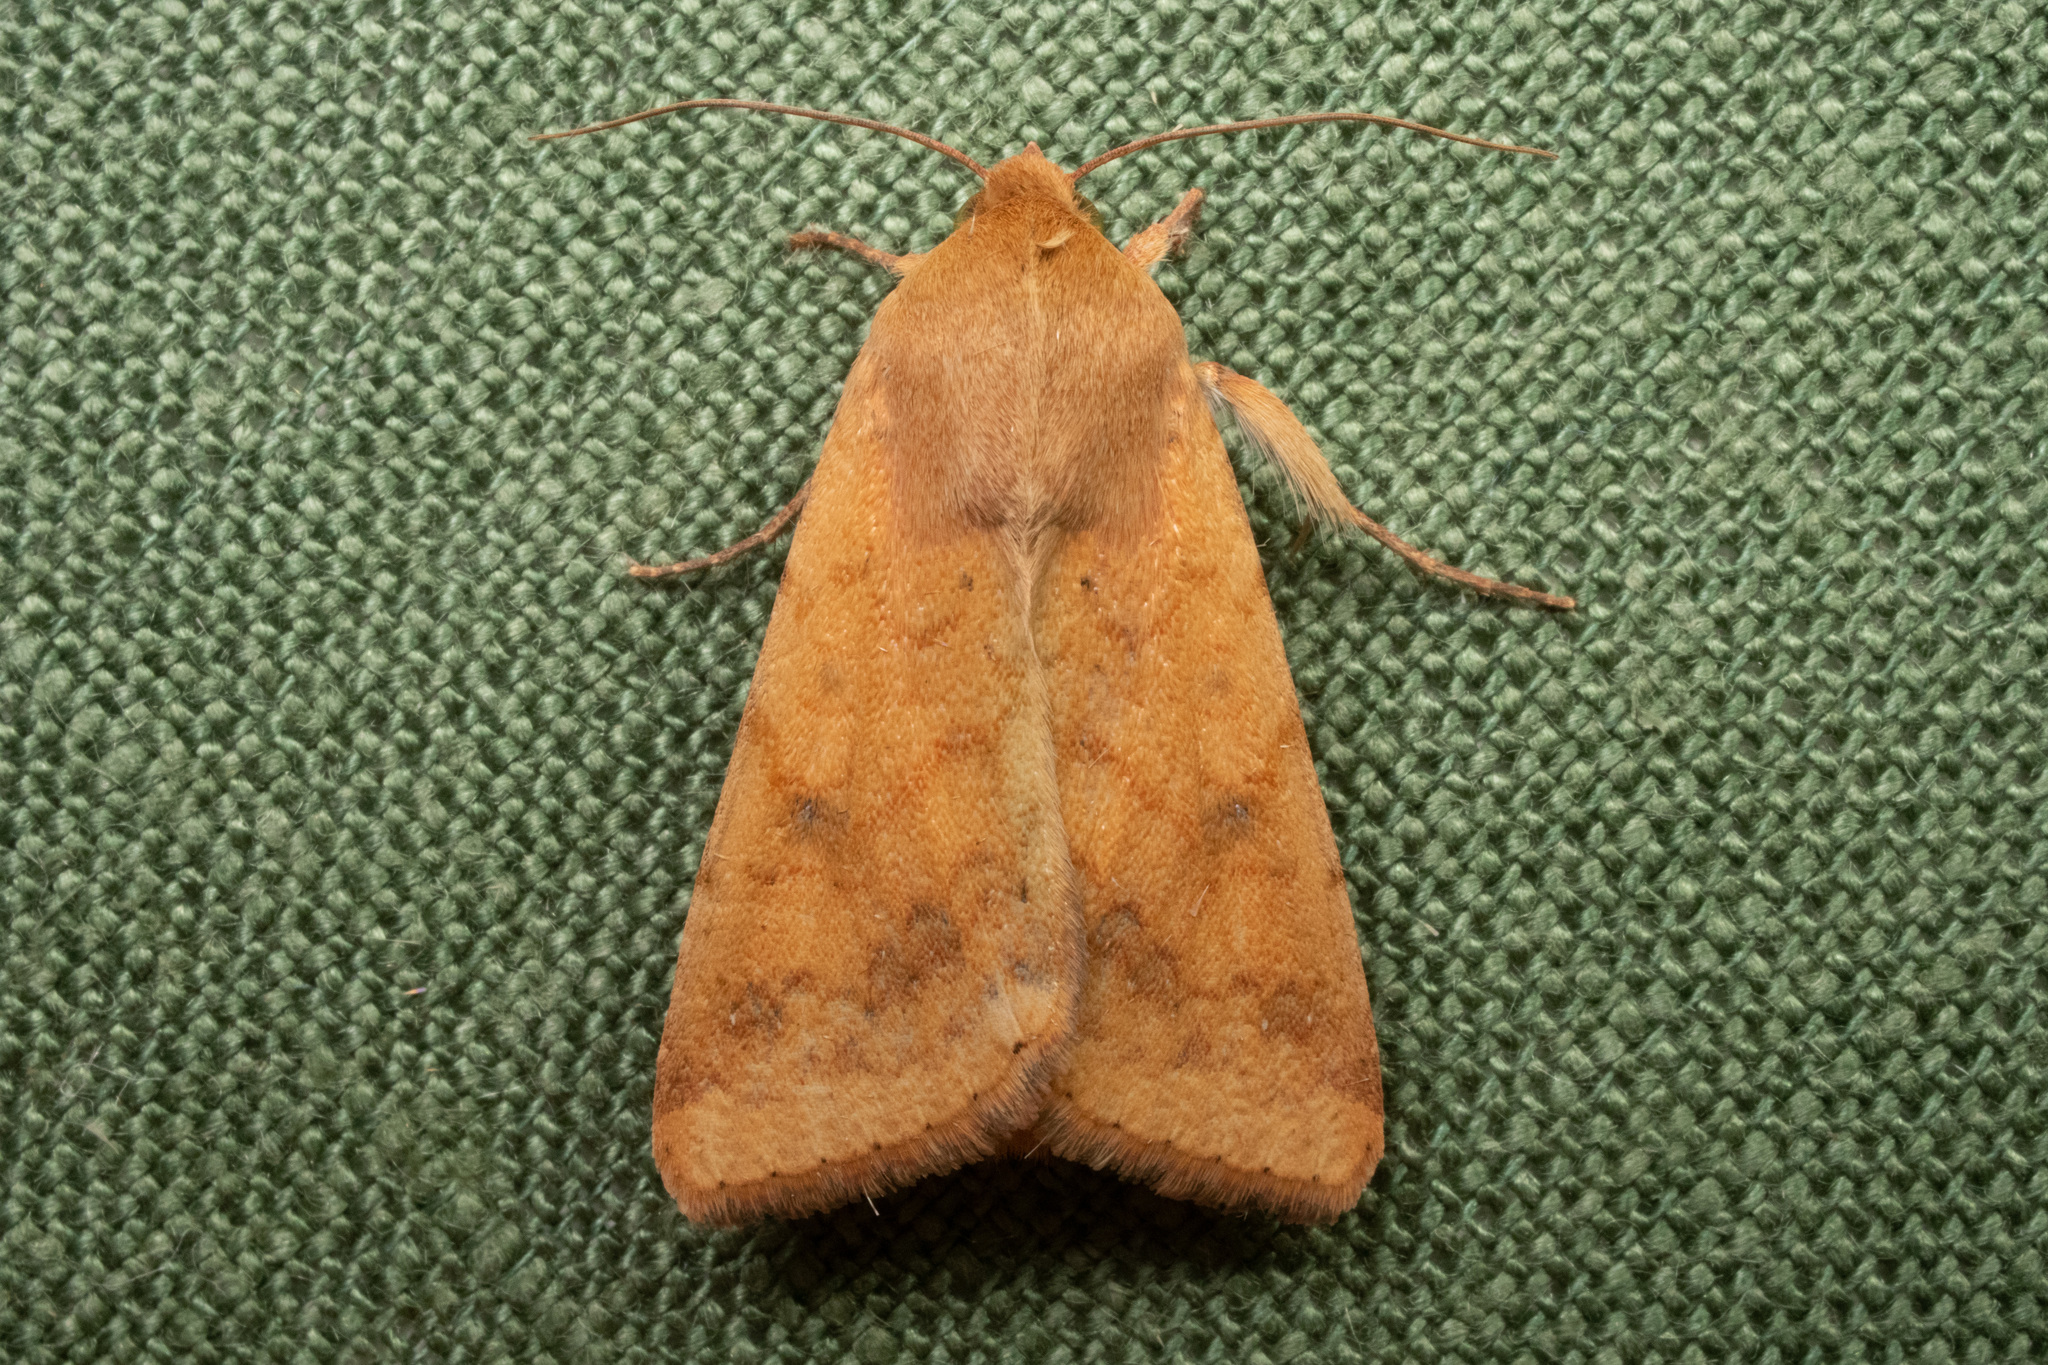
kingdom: Animalia
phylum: Arthropoda
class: Insecta
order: Lepidoptera
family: Noctuidae
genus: Helicoverpa
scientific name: Helicoverpa zea
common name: Bollworm
